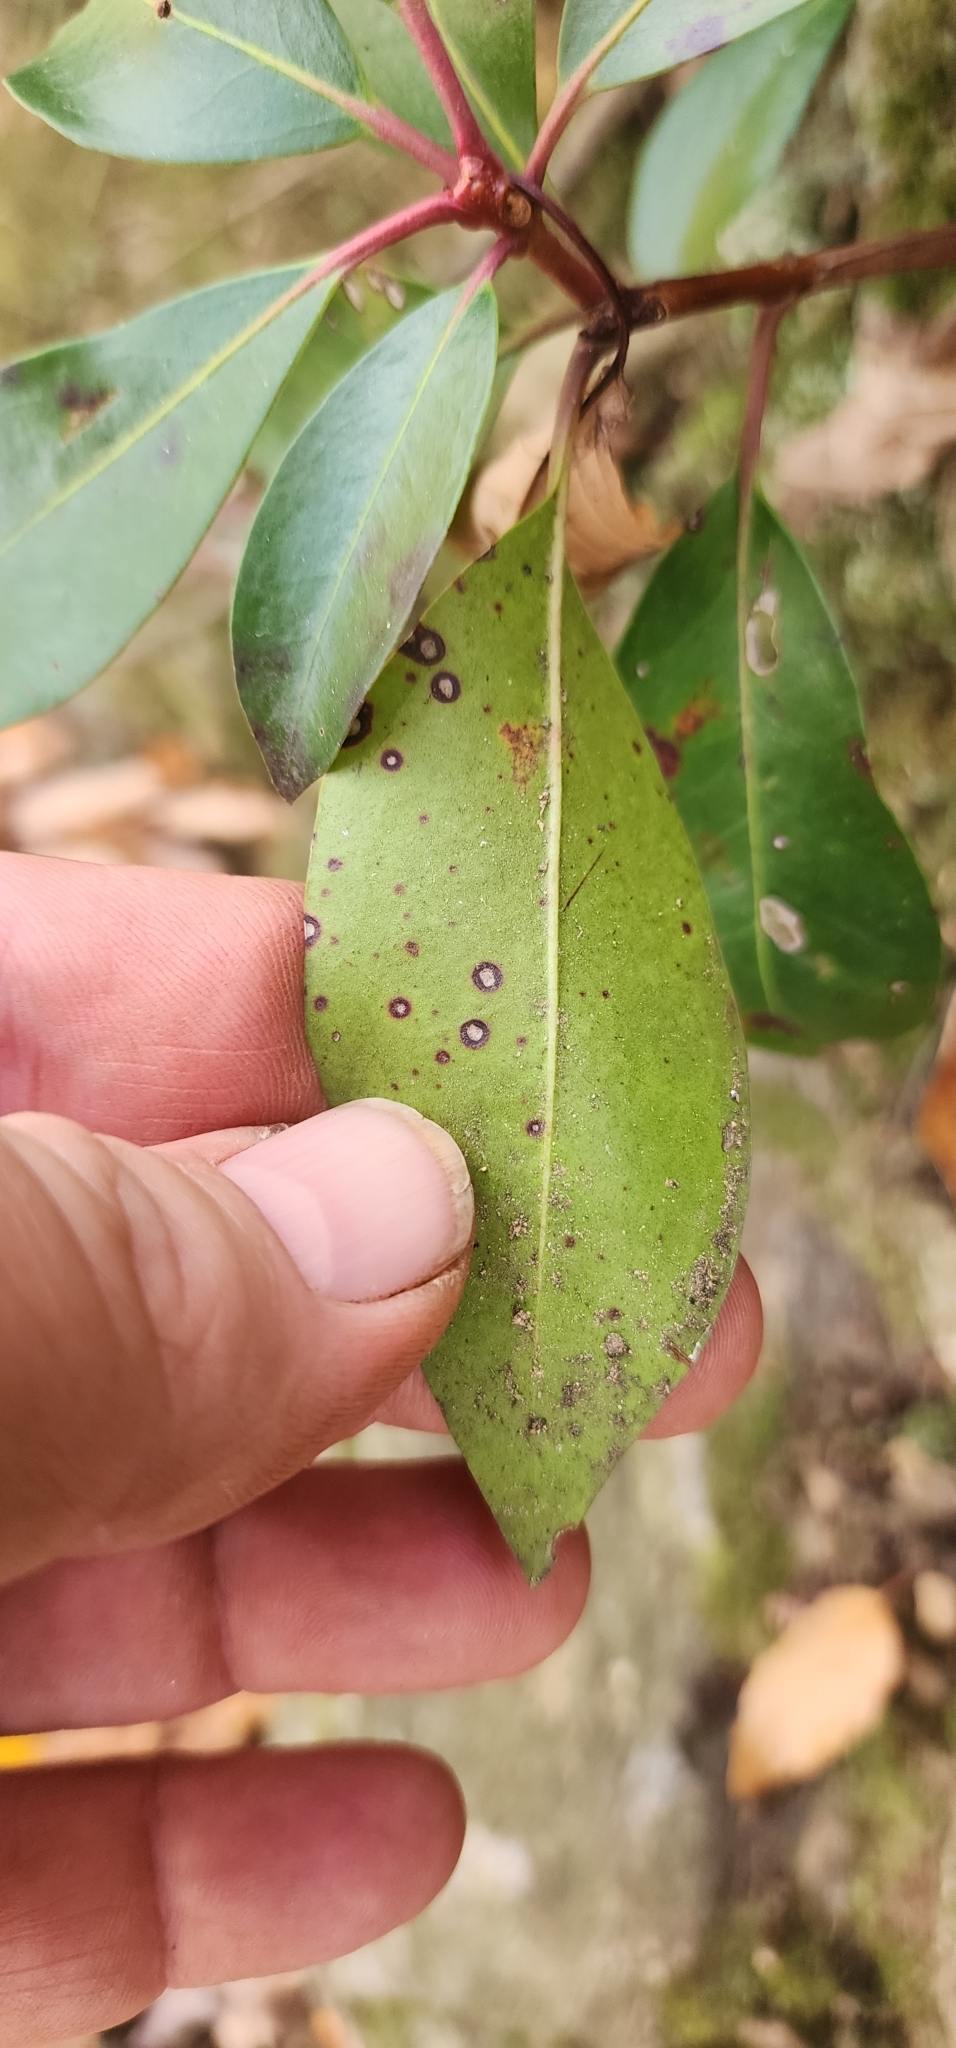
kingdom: Plantae
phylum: Tracheophyta
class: Magnoliopsida
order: Ericales
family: Ericaceae
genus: Kalmia
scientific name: Kalmia latifolia
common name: Mountain-laurel
